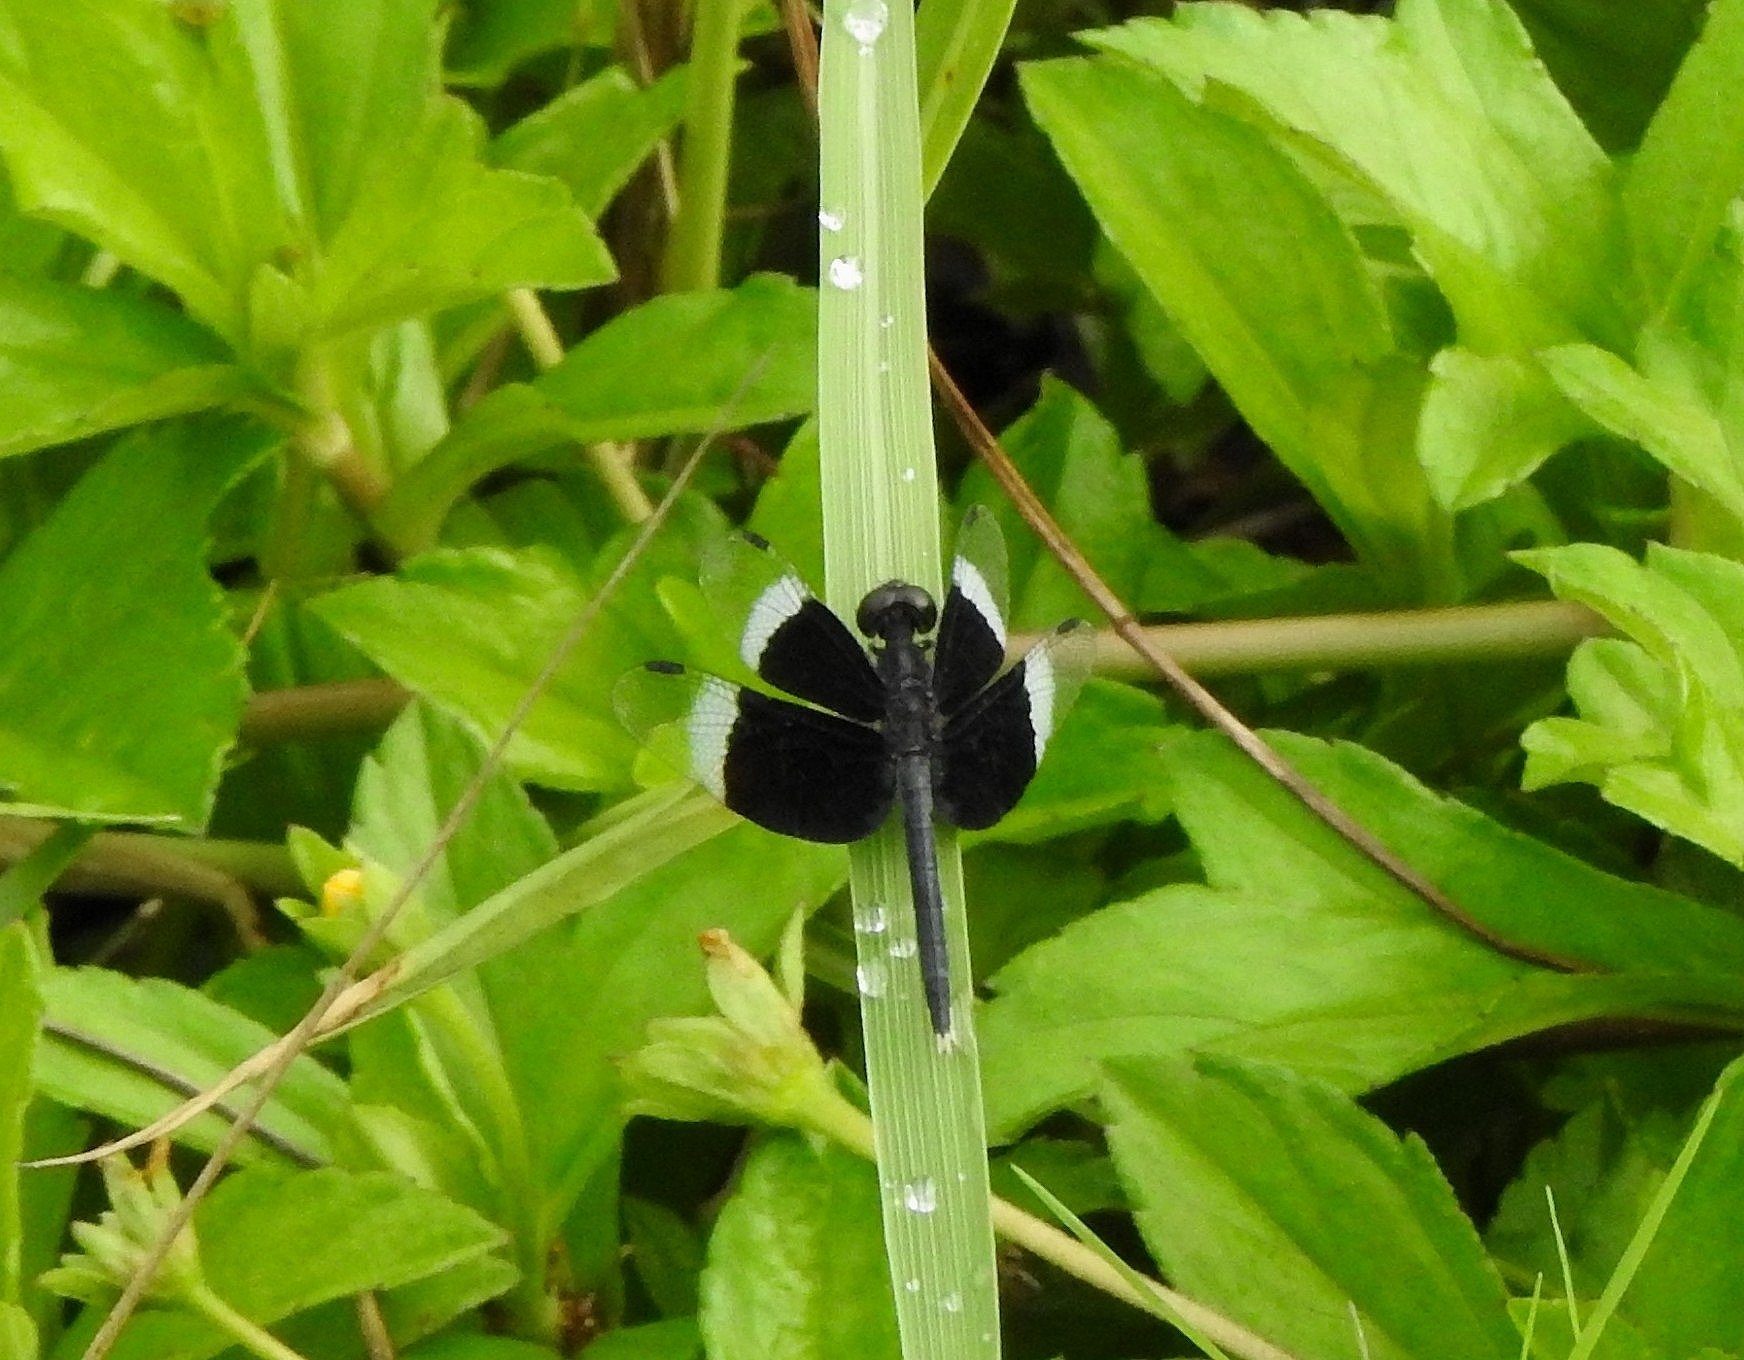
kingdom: Animalia
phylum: Arthropoda
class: Insecta
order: Odonata
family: Libellulidae
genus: Neurothemis
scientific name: Neurothemis tullia
